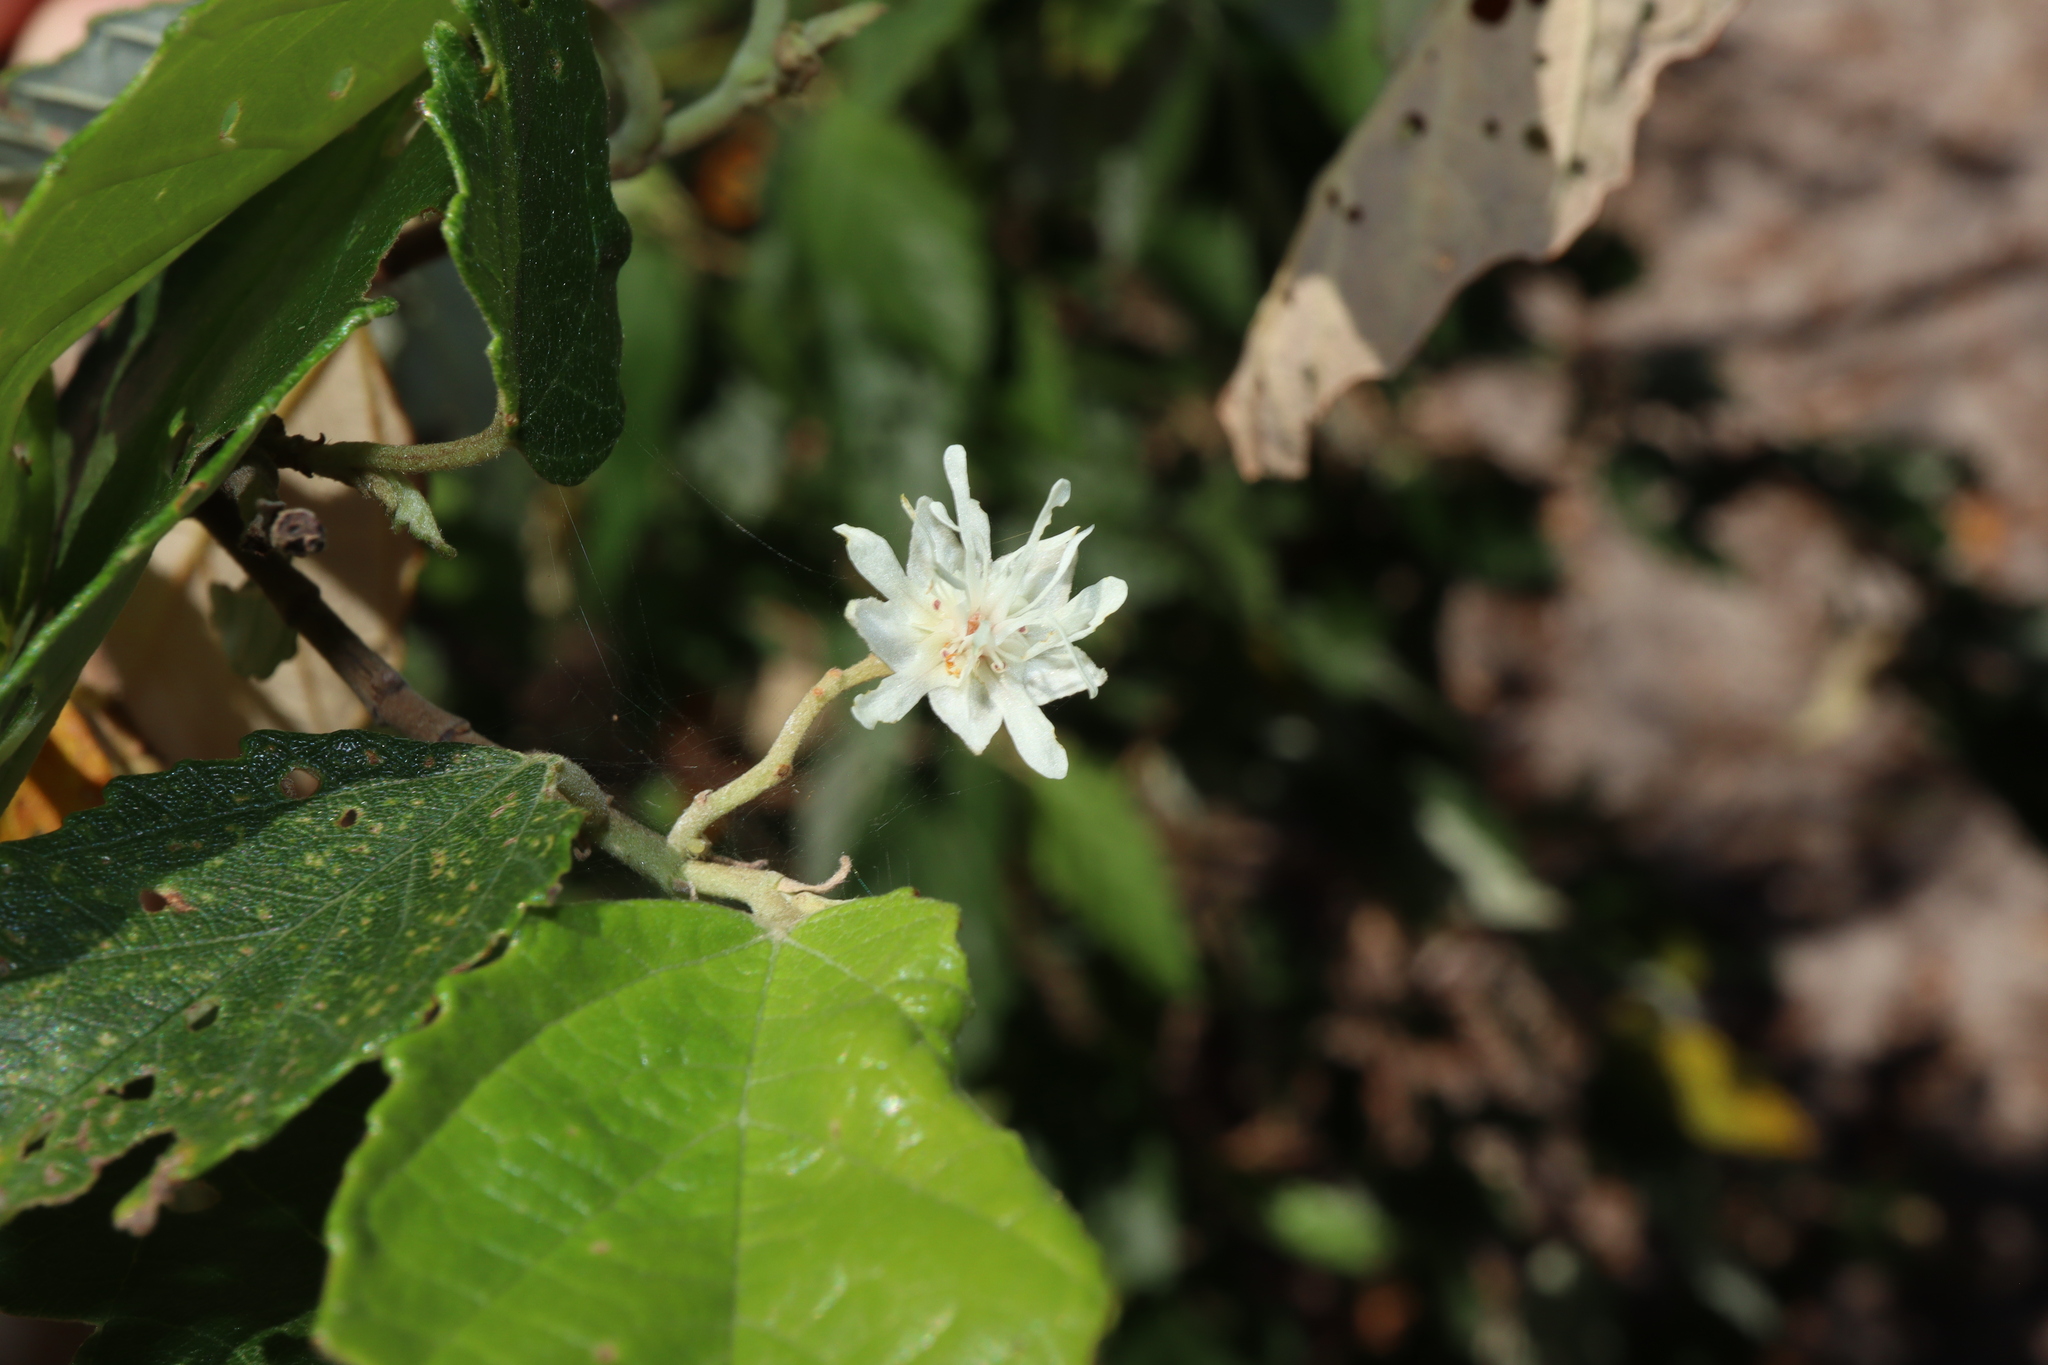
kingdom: Plantae
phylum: Tracheophyta
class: Magnoliopsida
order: Malvales
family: Malvaceae
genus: Androcalva
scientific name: Androcalva fraseri
